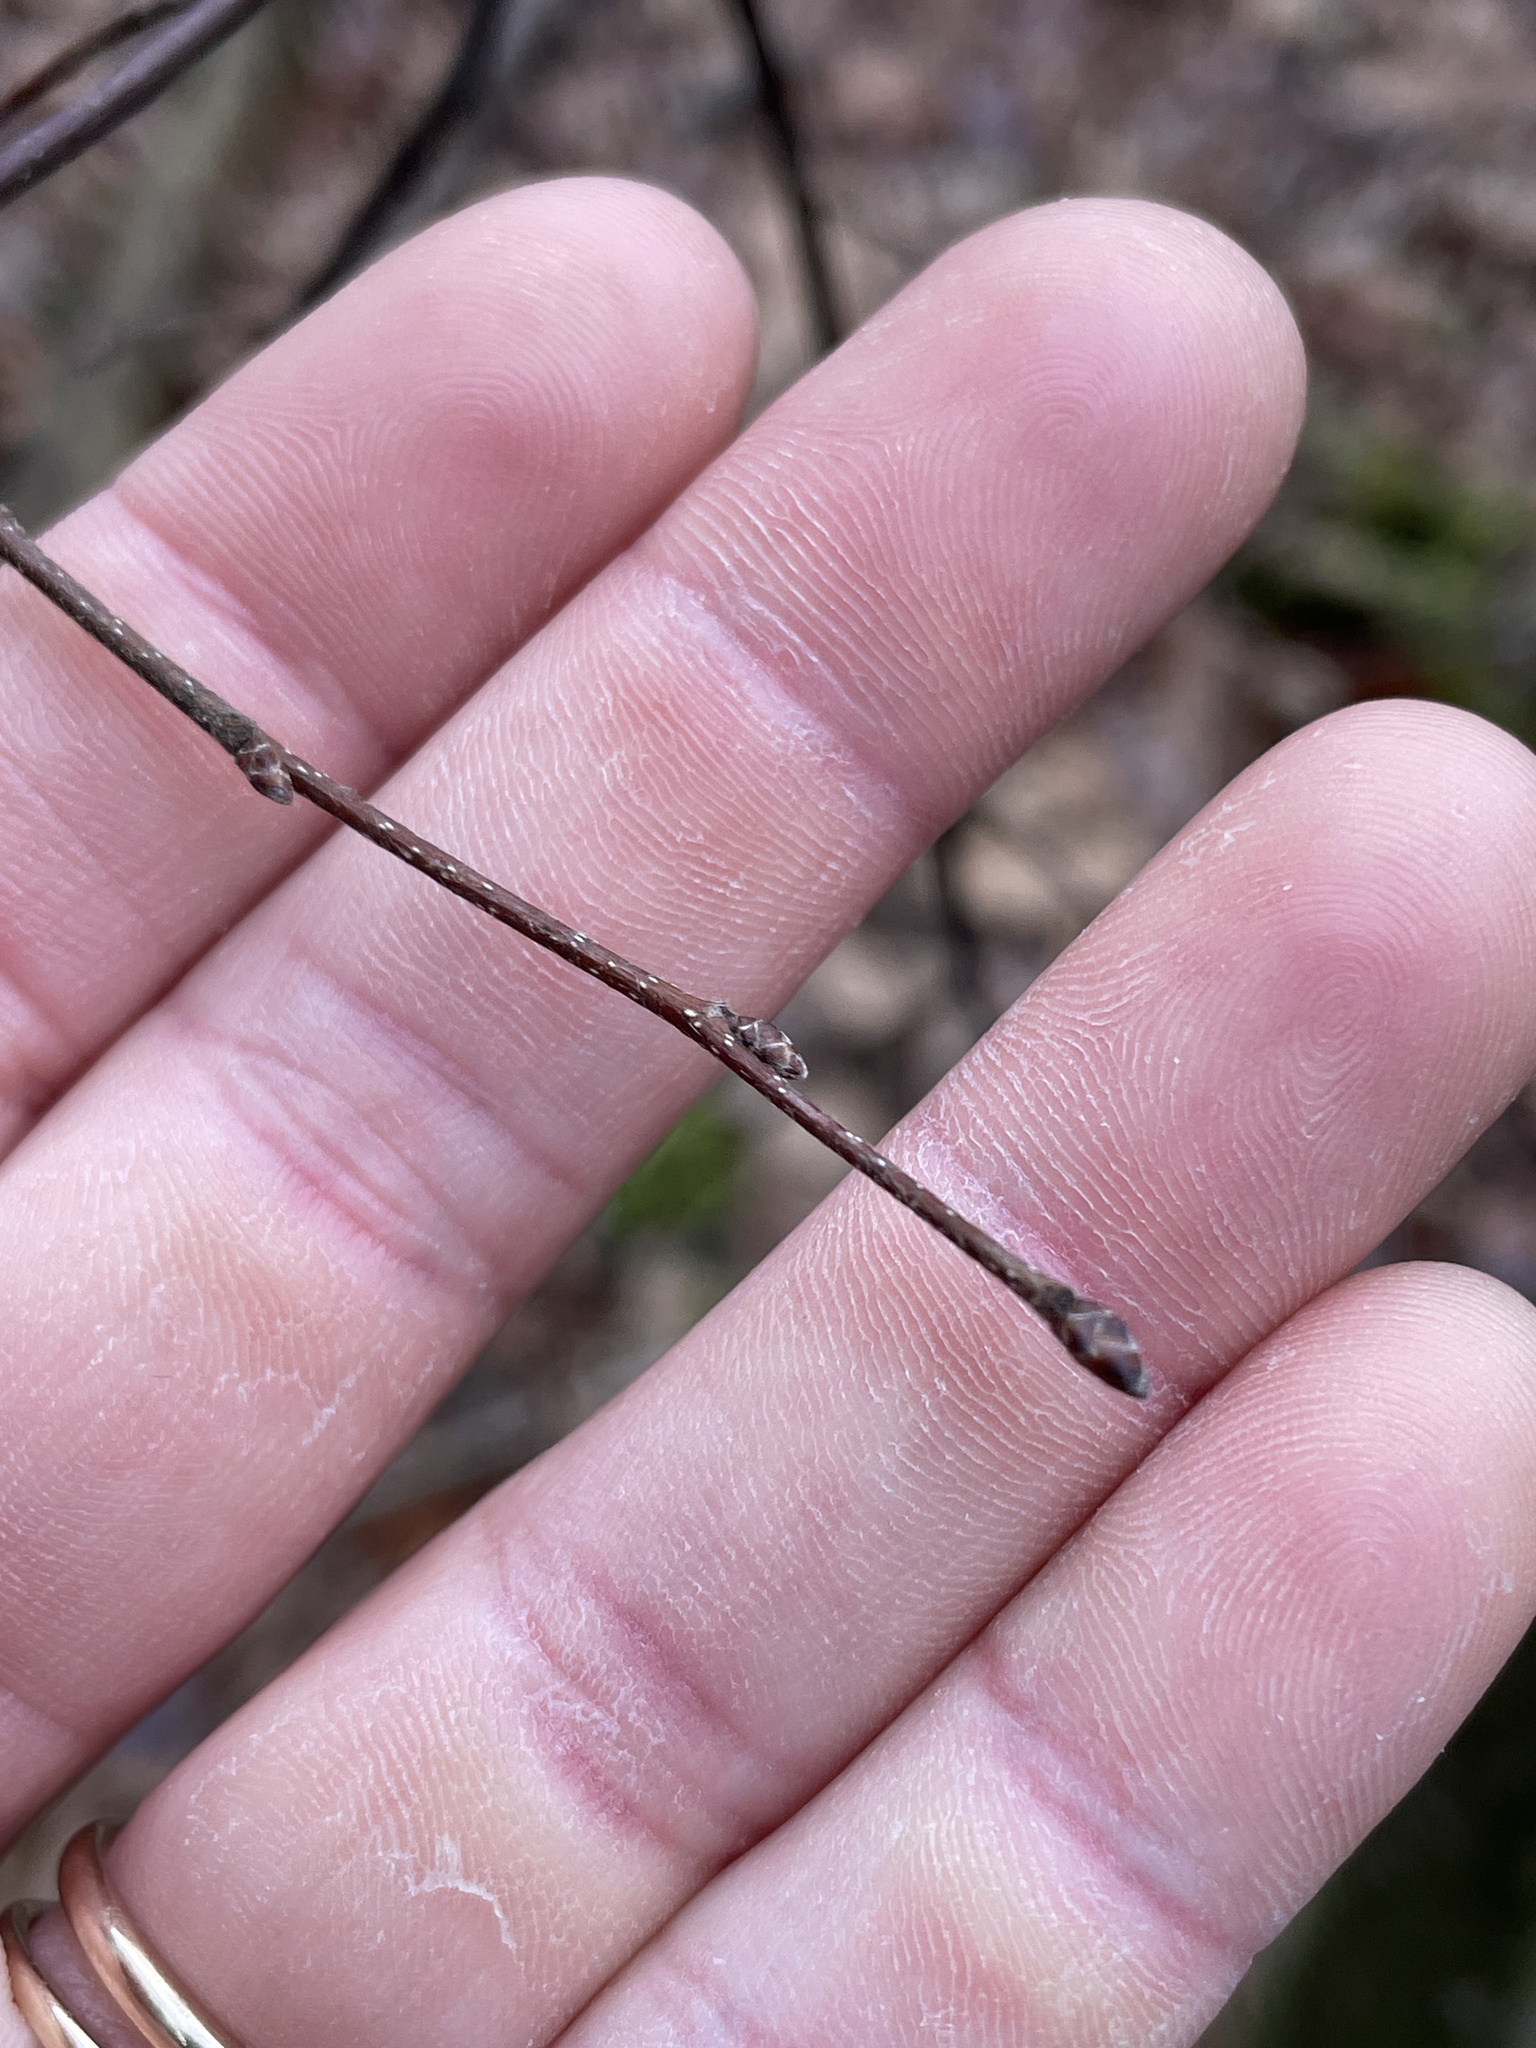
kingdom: Plantae
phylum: Tracheophyta
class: Magnoliopsida
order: Fagales
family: Betulaceae
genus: Carpinus
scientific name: Carpinus caroliniana
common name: American hornbeam
